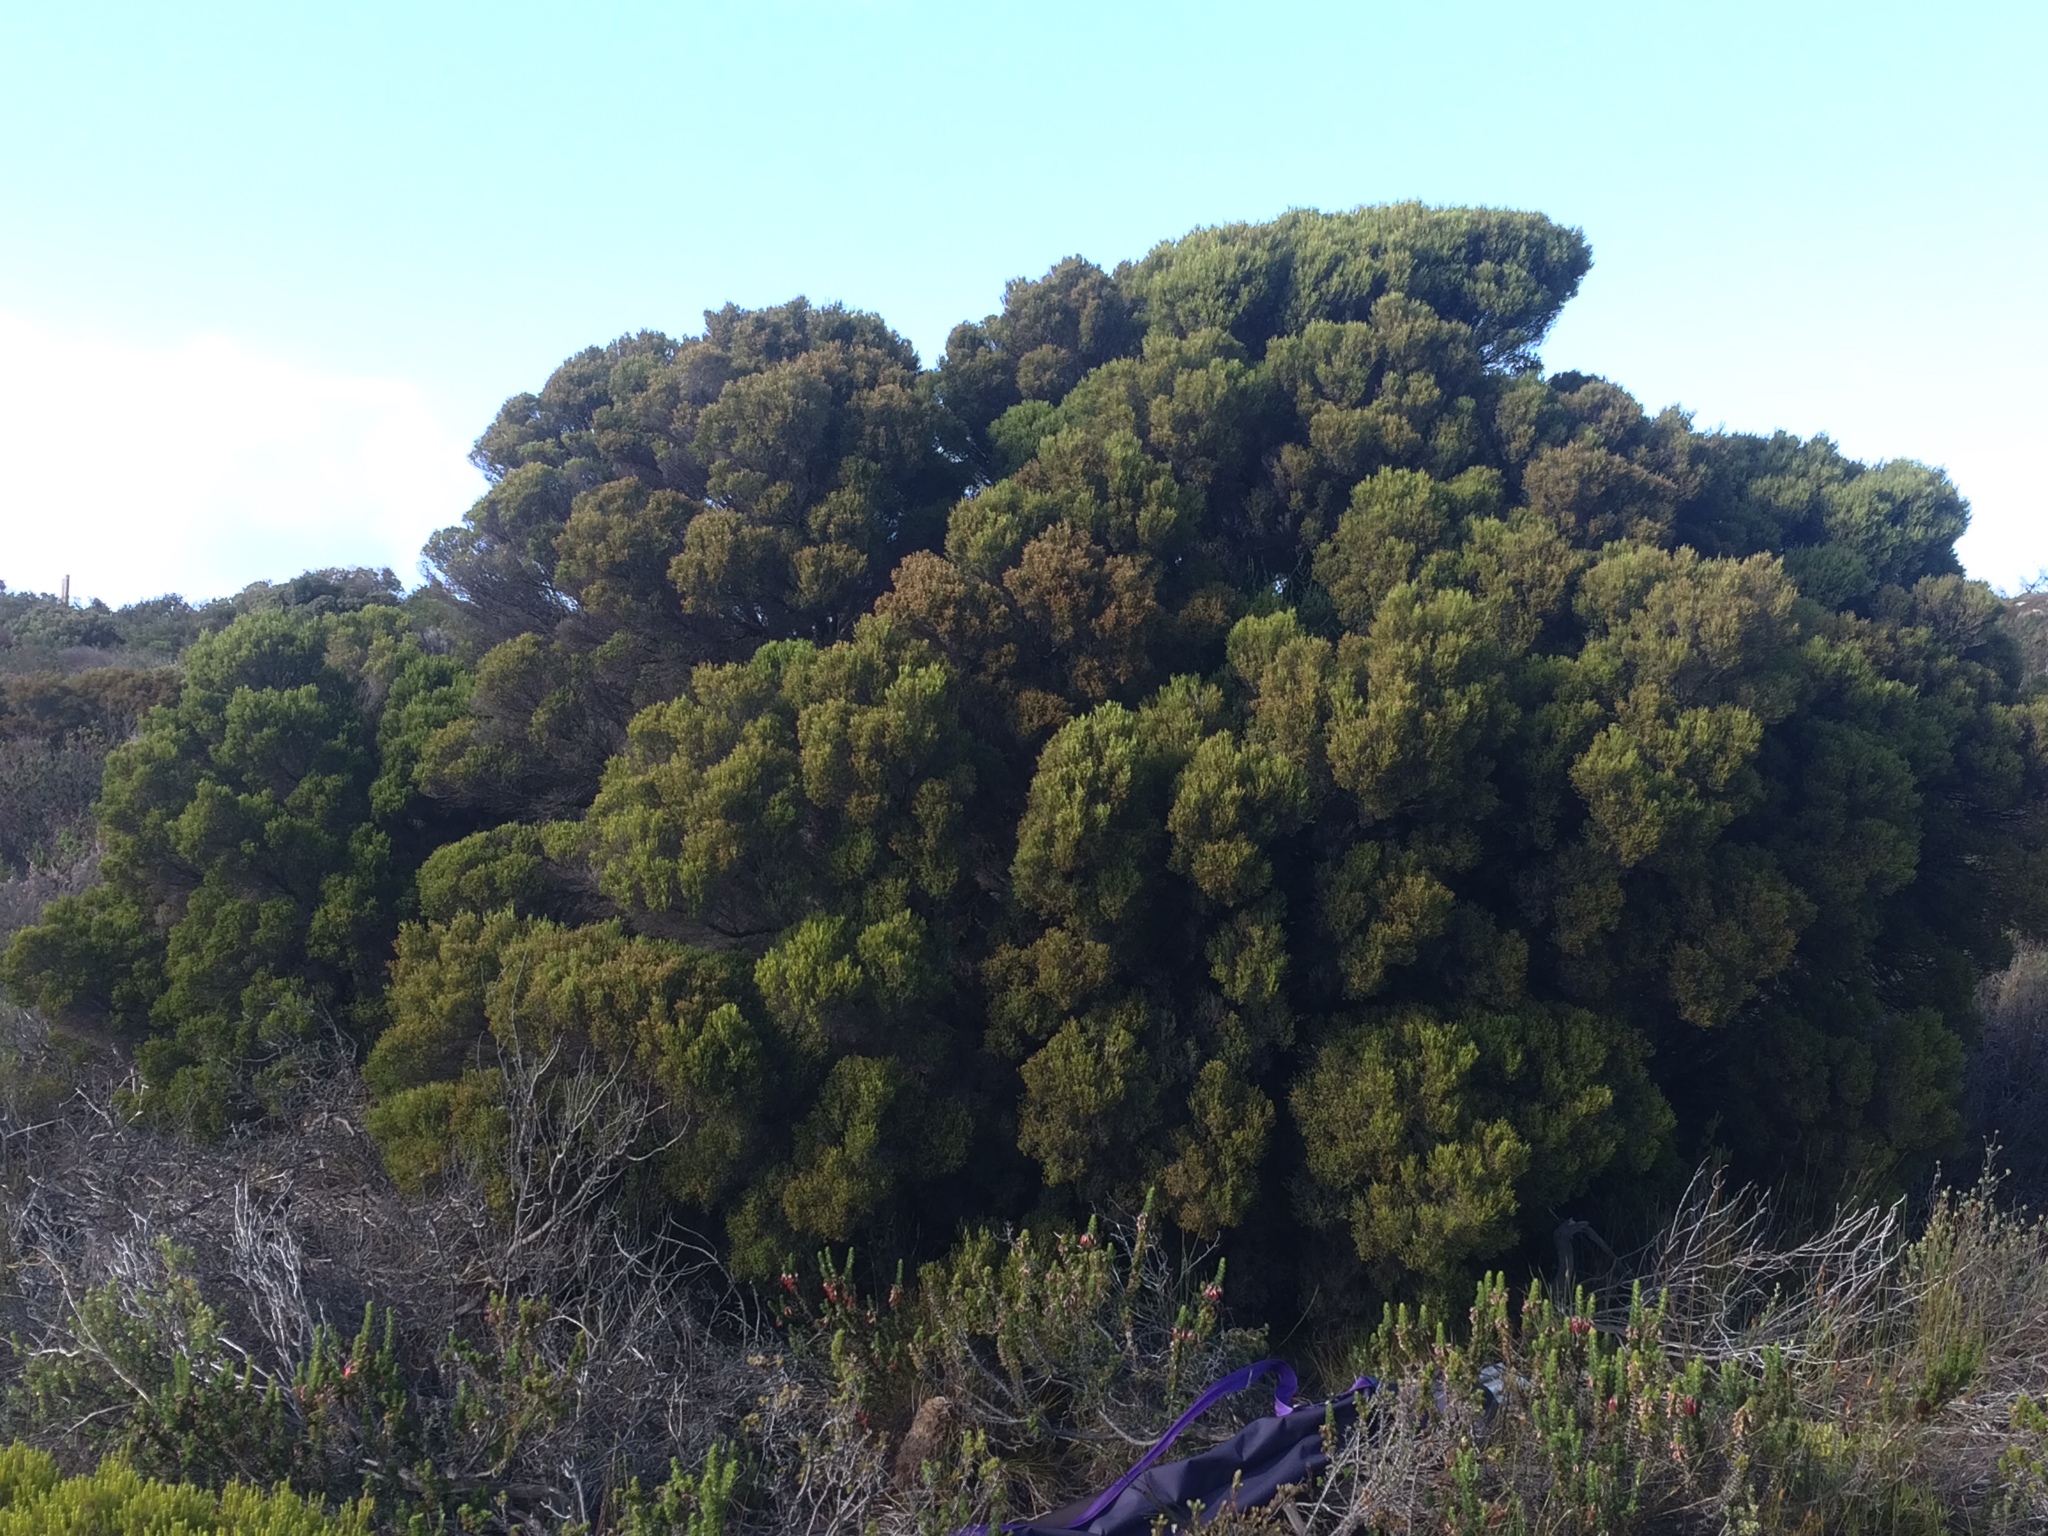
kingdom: Plantae
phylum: Tracheophyta
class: Magnoliopsida
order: Ericales
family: Ericaceae
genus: Erica
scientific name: Erica tristis
